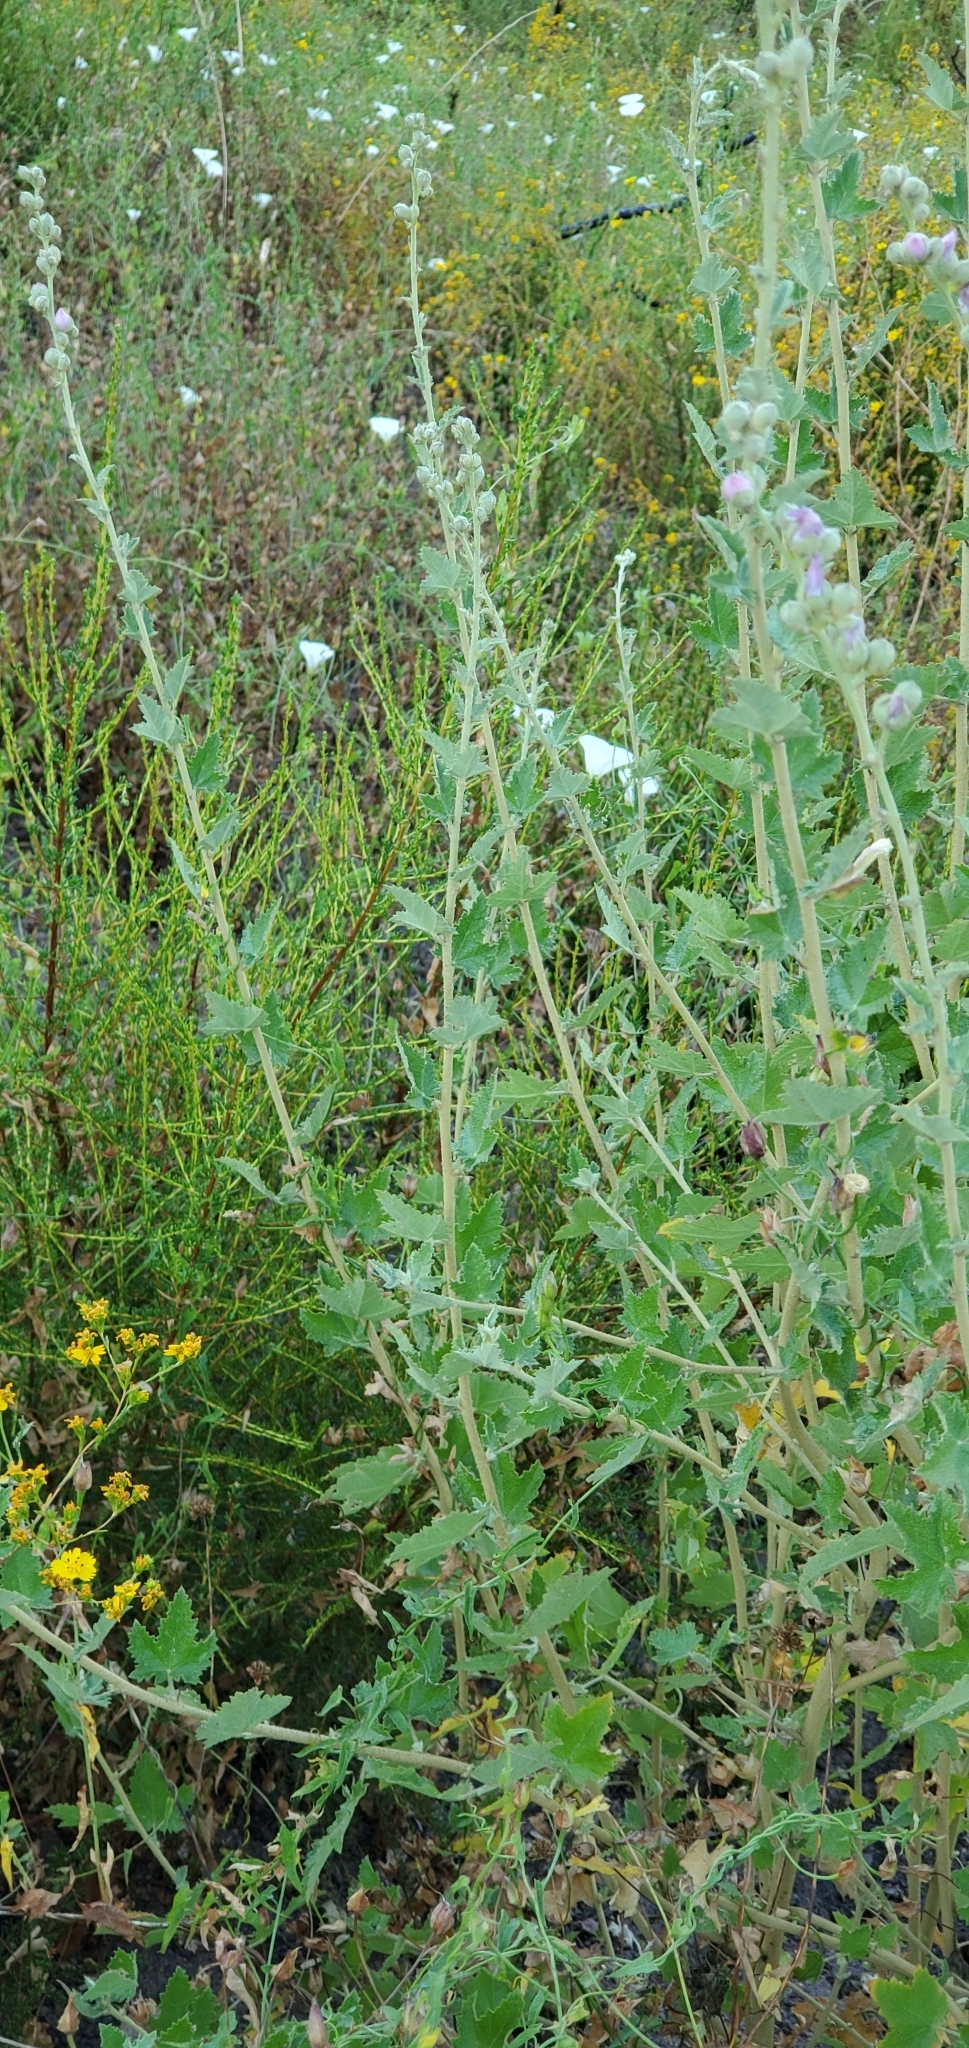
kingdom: Plantae
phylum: Tracheophyta
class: Magnoliopsida
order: Malvales
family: Malvaceae
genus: Malacothamnus
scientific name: Malacothamnus fasciculatus
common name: Sant cruz island bush-mallow
